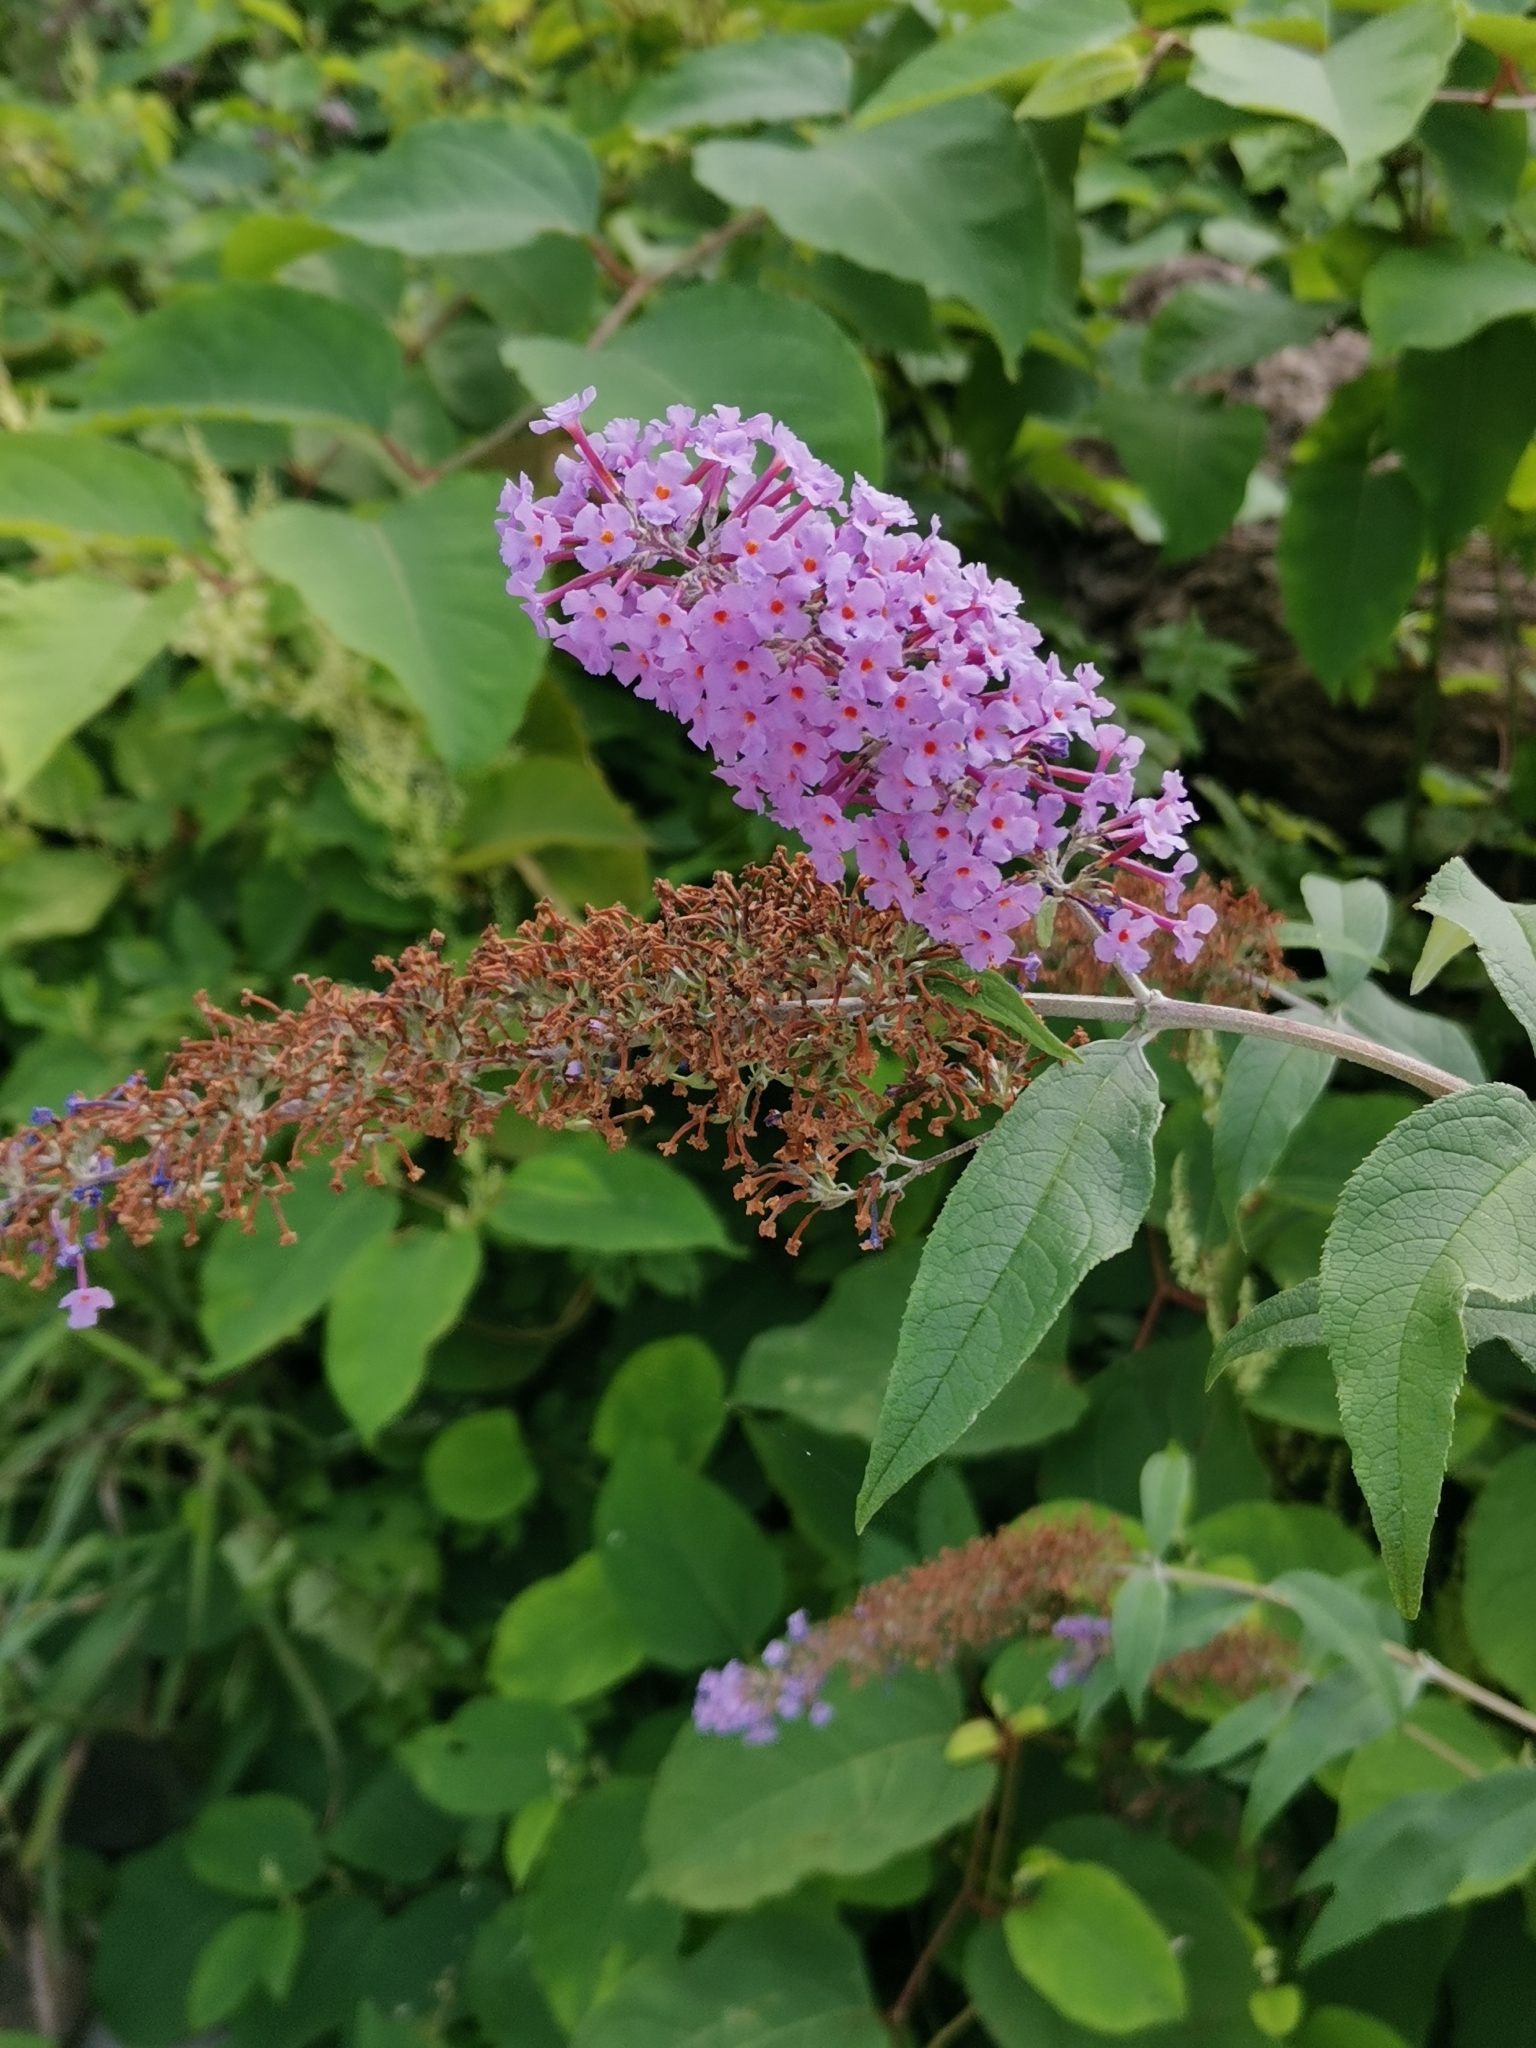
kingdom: Plantae
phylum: Tracheophyta
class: Magnoliopsida
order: Lamiales
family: Scrophulariaceae
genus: Buddleja
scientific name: Buddleja davidii
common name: Butterfly-bush
